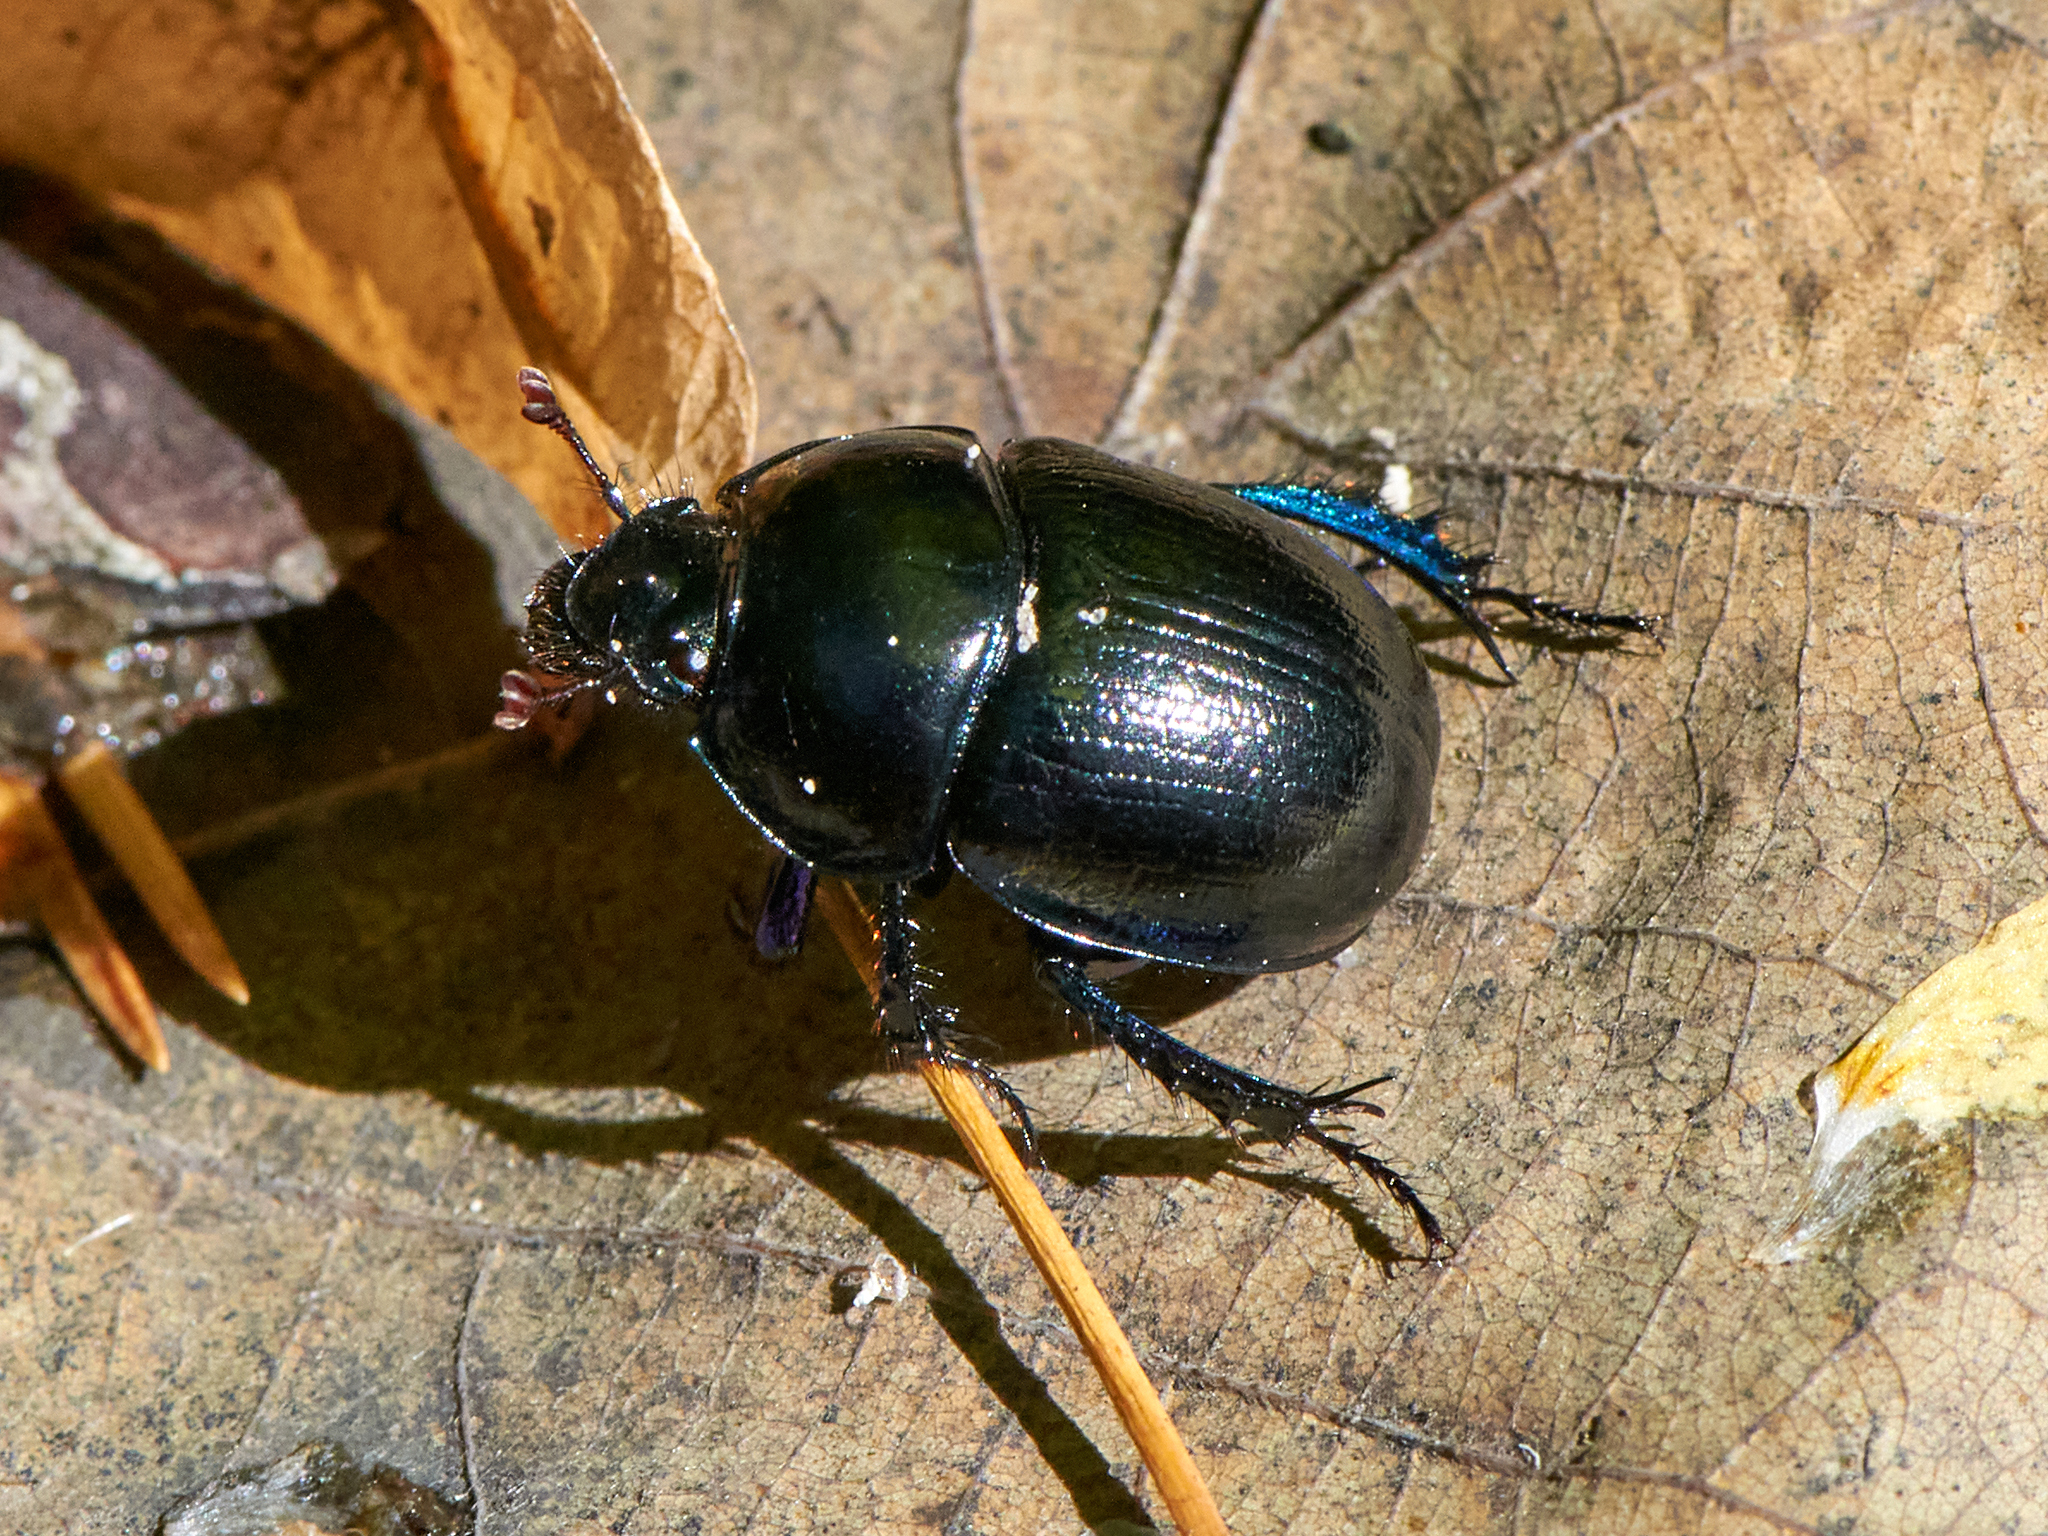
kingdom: Animalia
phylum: Arthropoda
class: Insecta
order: Coleoptera
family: Geotrupidae
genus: Anoplotrupes
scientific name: Anoplotrupes stercorosus
